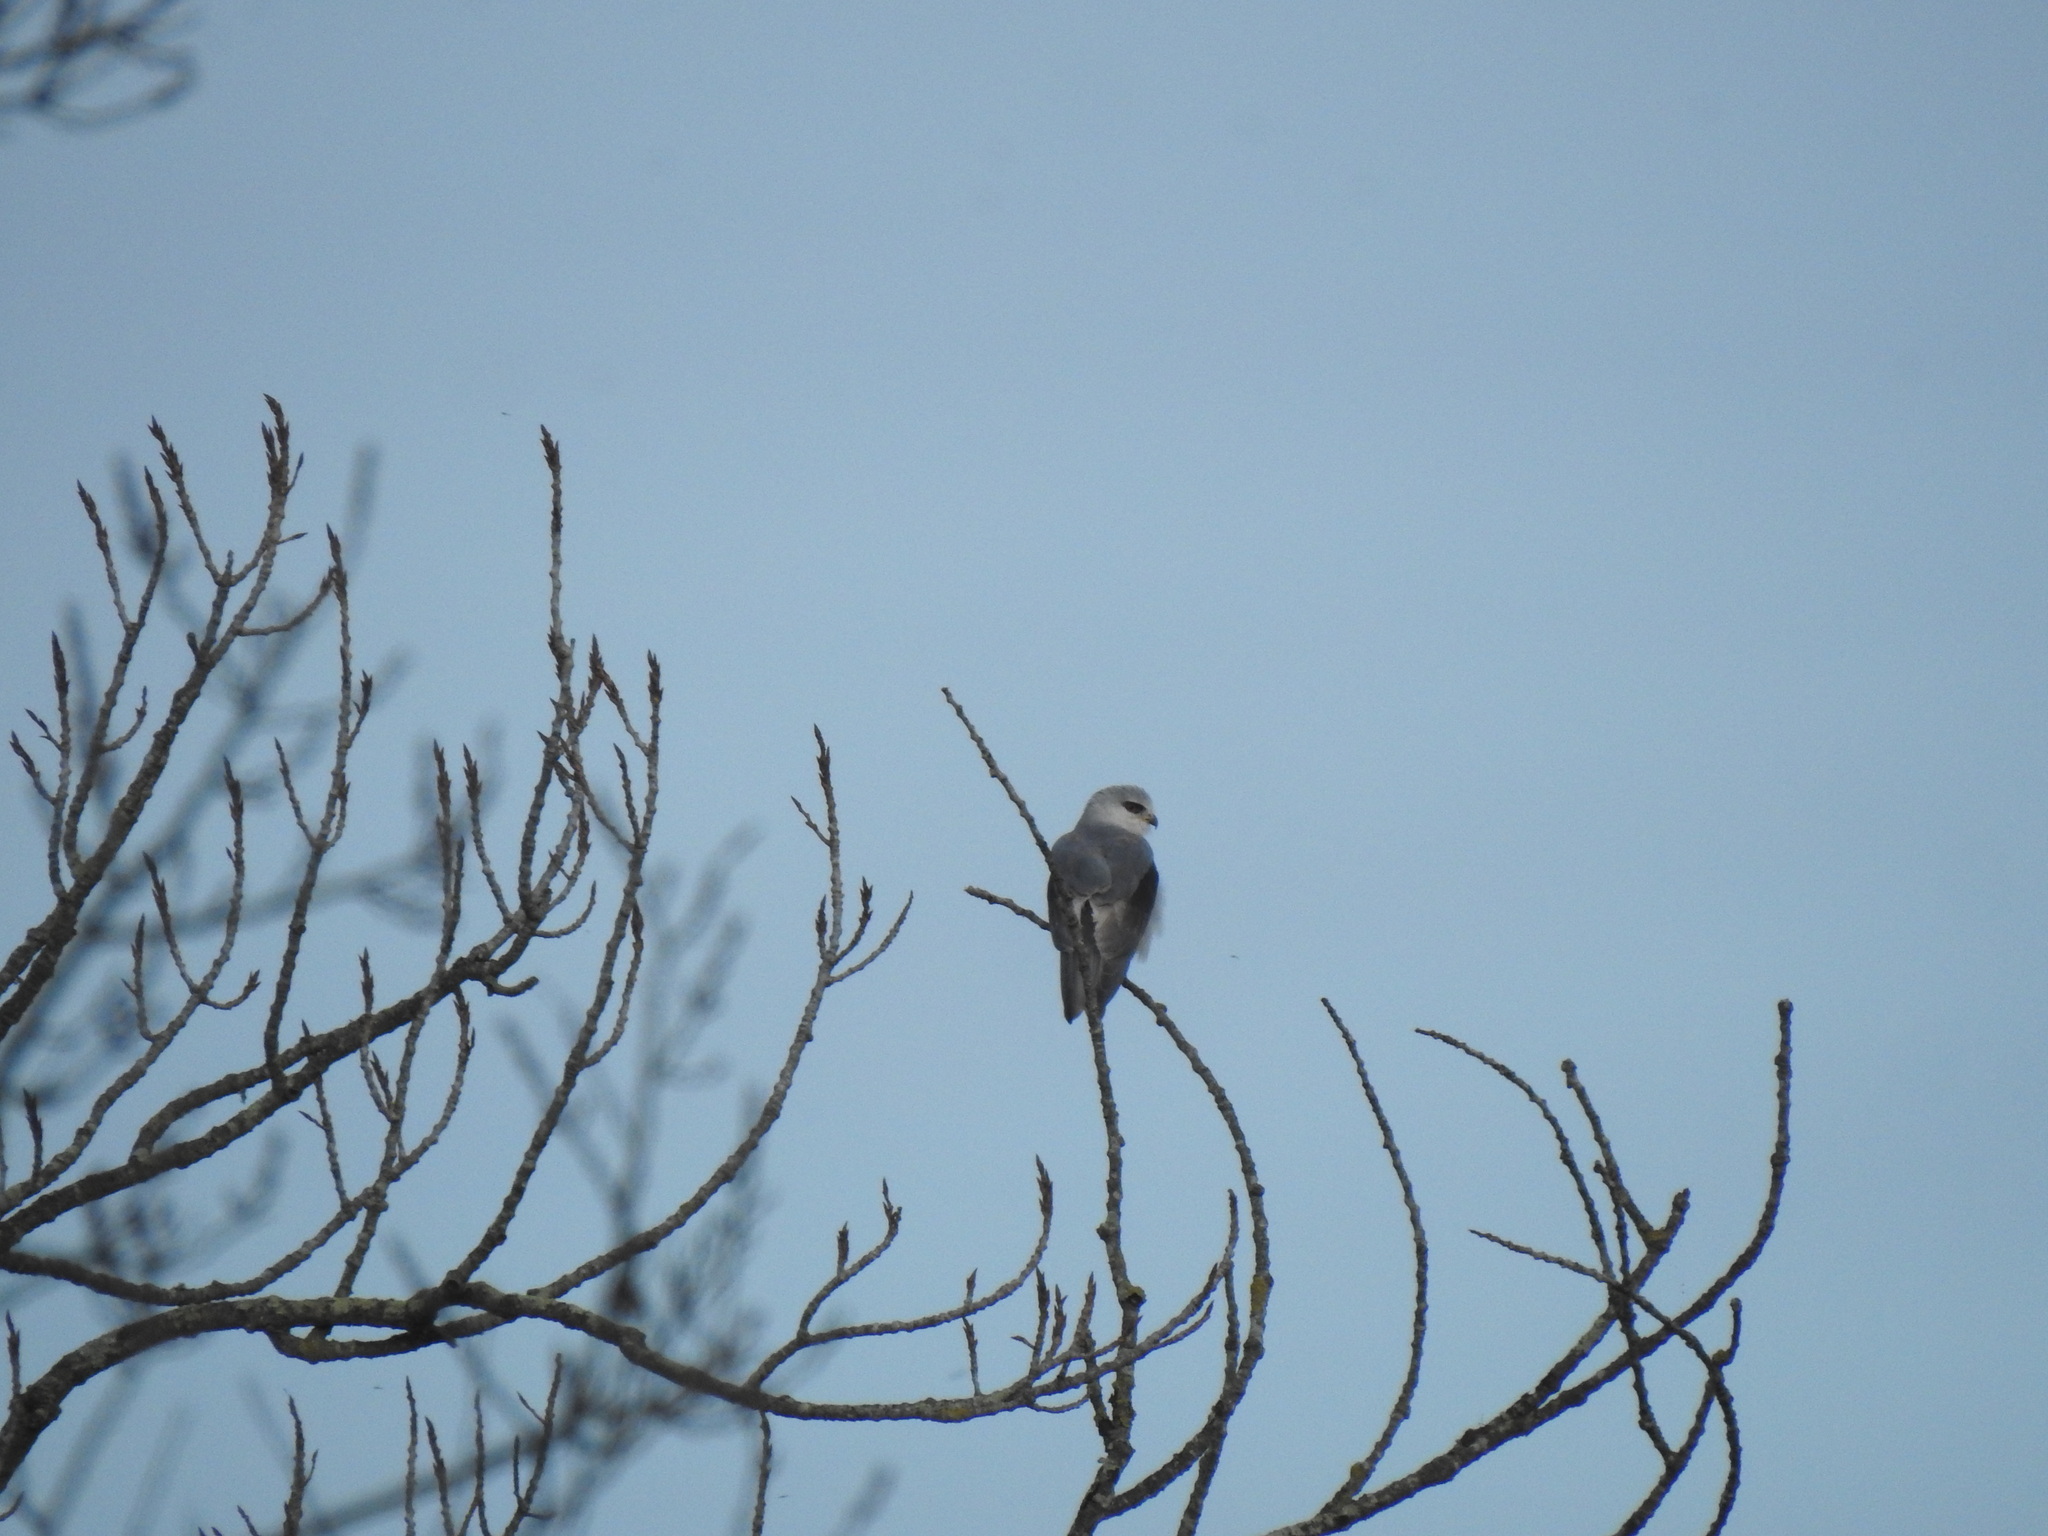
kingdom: Animalia
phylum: Chordata
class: Aves
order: Accipitriformes
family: Accipitridae
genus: Elanus
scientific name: Elanus caeruleus
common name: Black-winged kite
